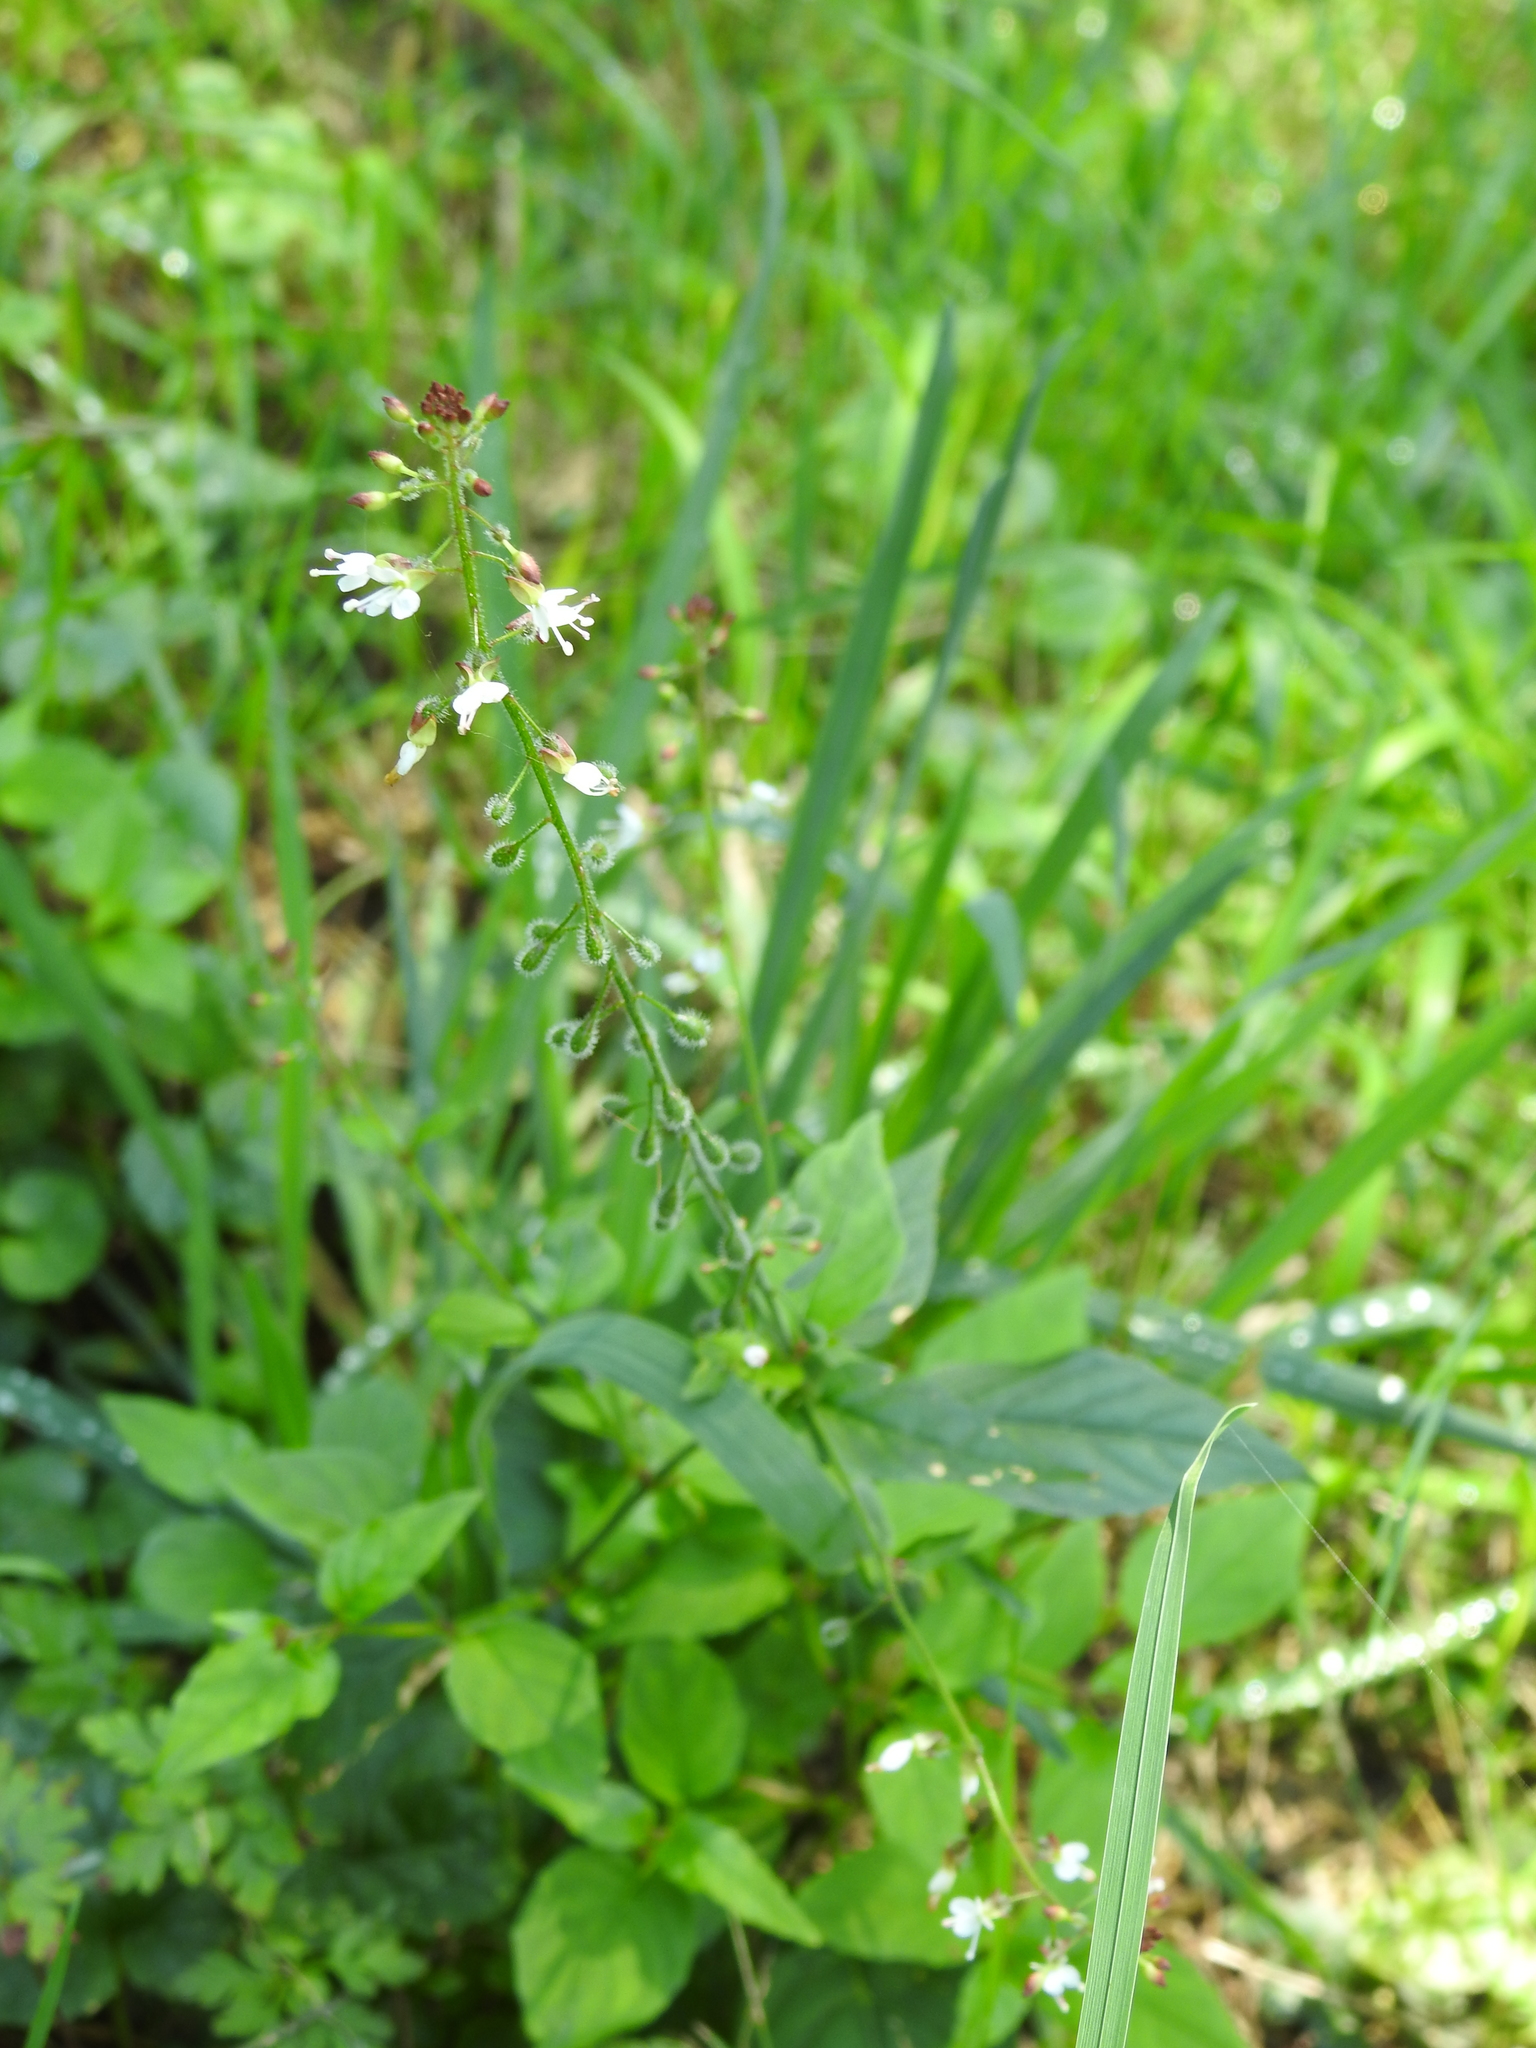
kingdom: Plantae
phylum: Tracheophyta
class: Magnoliopsida
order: Myrtales
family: Onagraceae
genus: Circaea
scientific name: Circaea lutetiana
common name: Enchanter's-nightshade
